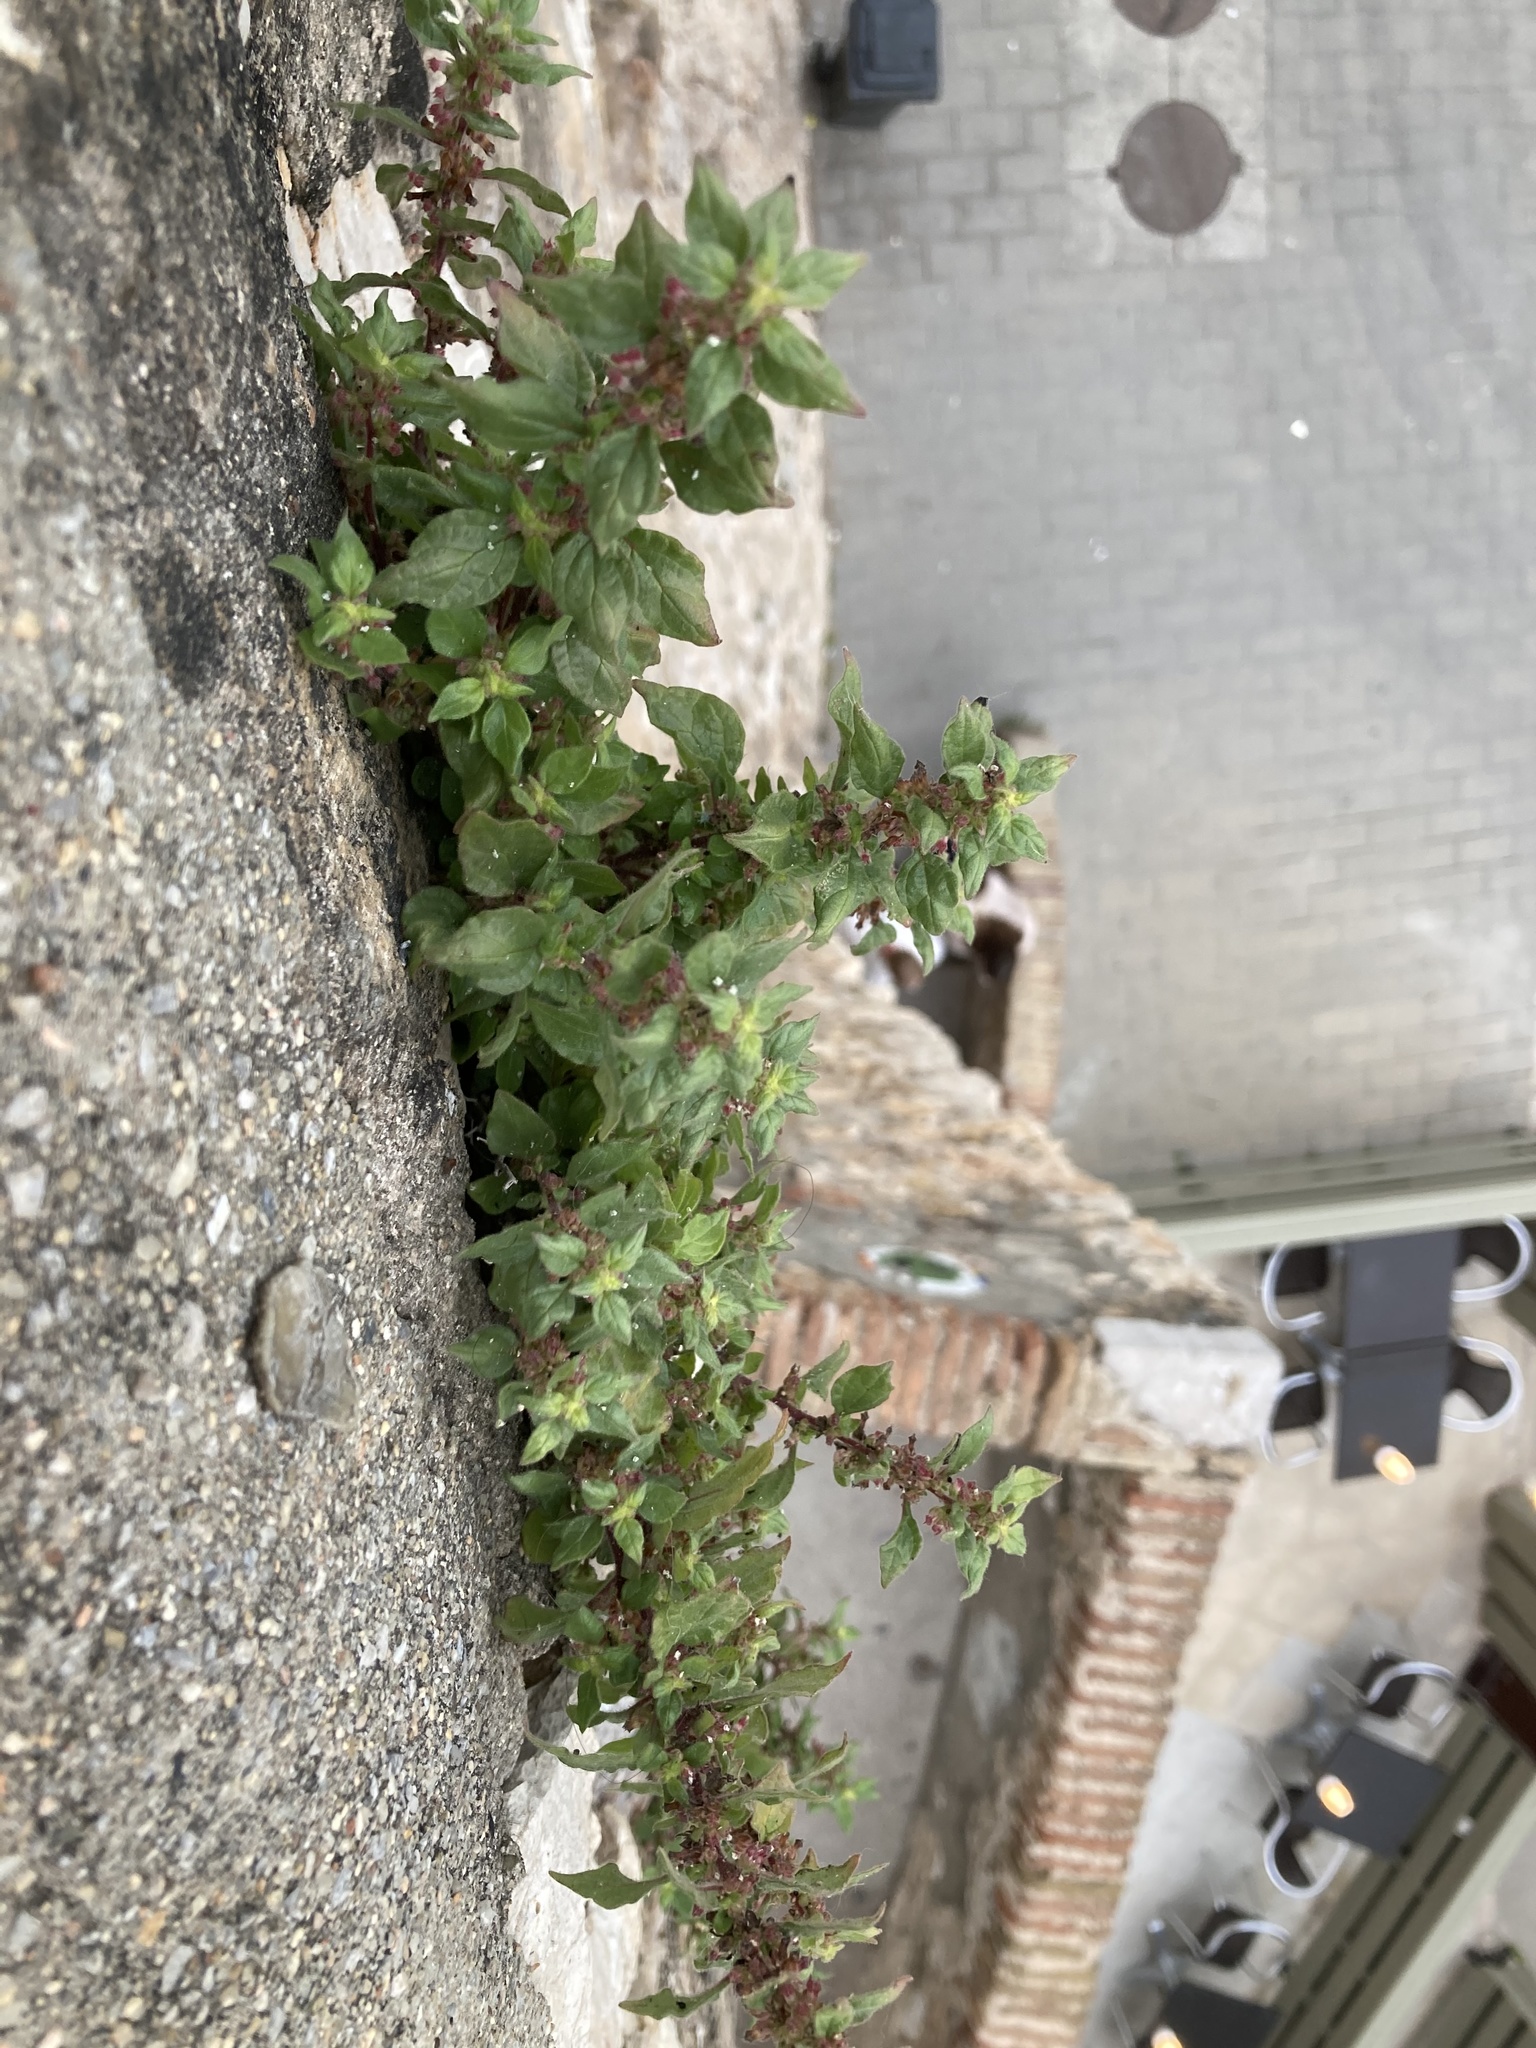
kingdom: Plantae
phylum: Tracheophyta
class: Magnoliopsida
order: Rosales
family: Urticaceae
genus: Parietaria
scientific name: Parietaria judaica
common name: Pellitory-of-the-wall
